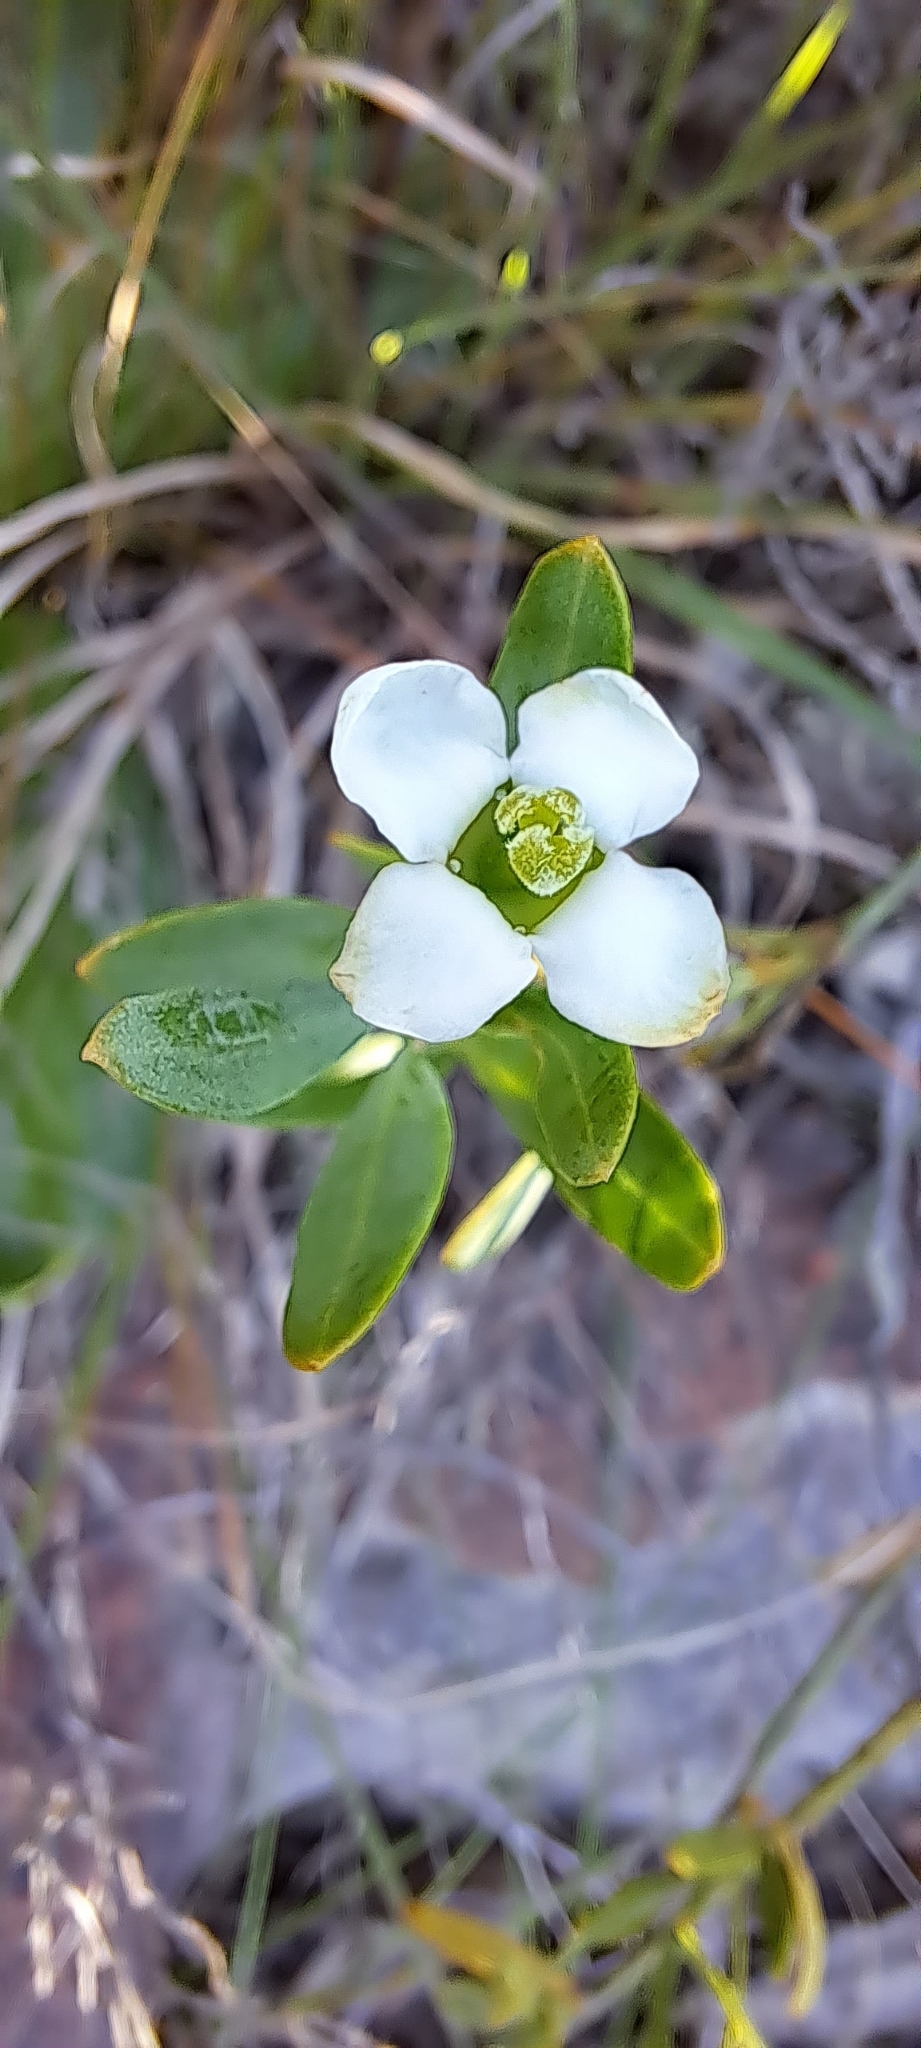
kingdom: Plantae
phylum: Tracheophyta
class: Magnoliopsida
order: Solanales
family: Montiniaceae
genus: Montinia
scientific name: Montinia caryophyllacea
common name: Wild clove-bush
